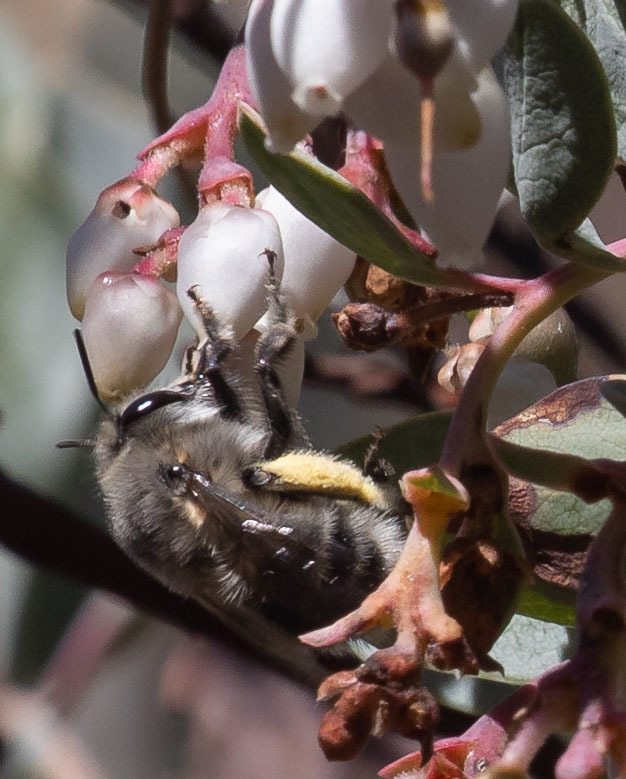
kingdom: Animalia
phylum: Arthropoda
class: Insecta
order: Hymenoptera
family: Apidae
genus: Anthophora
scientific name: Anthophora pacifica
